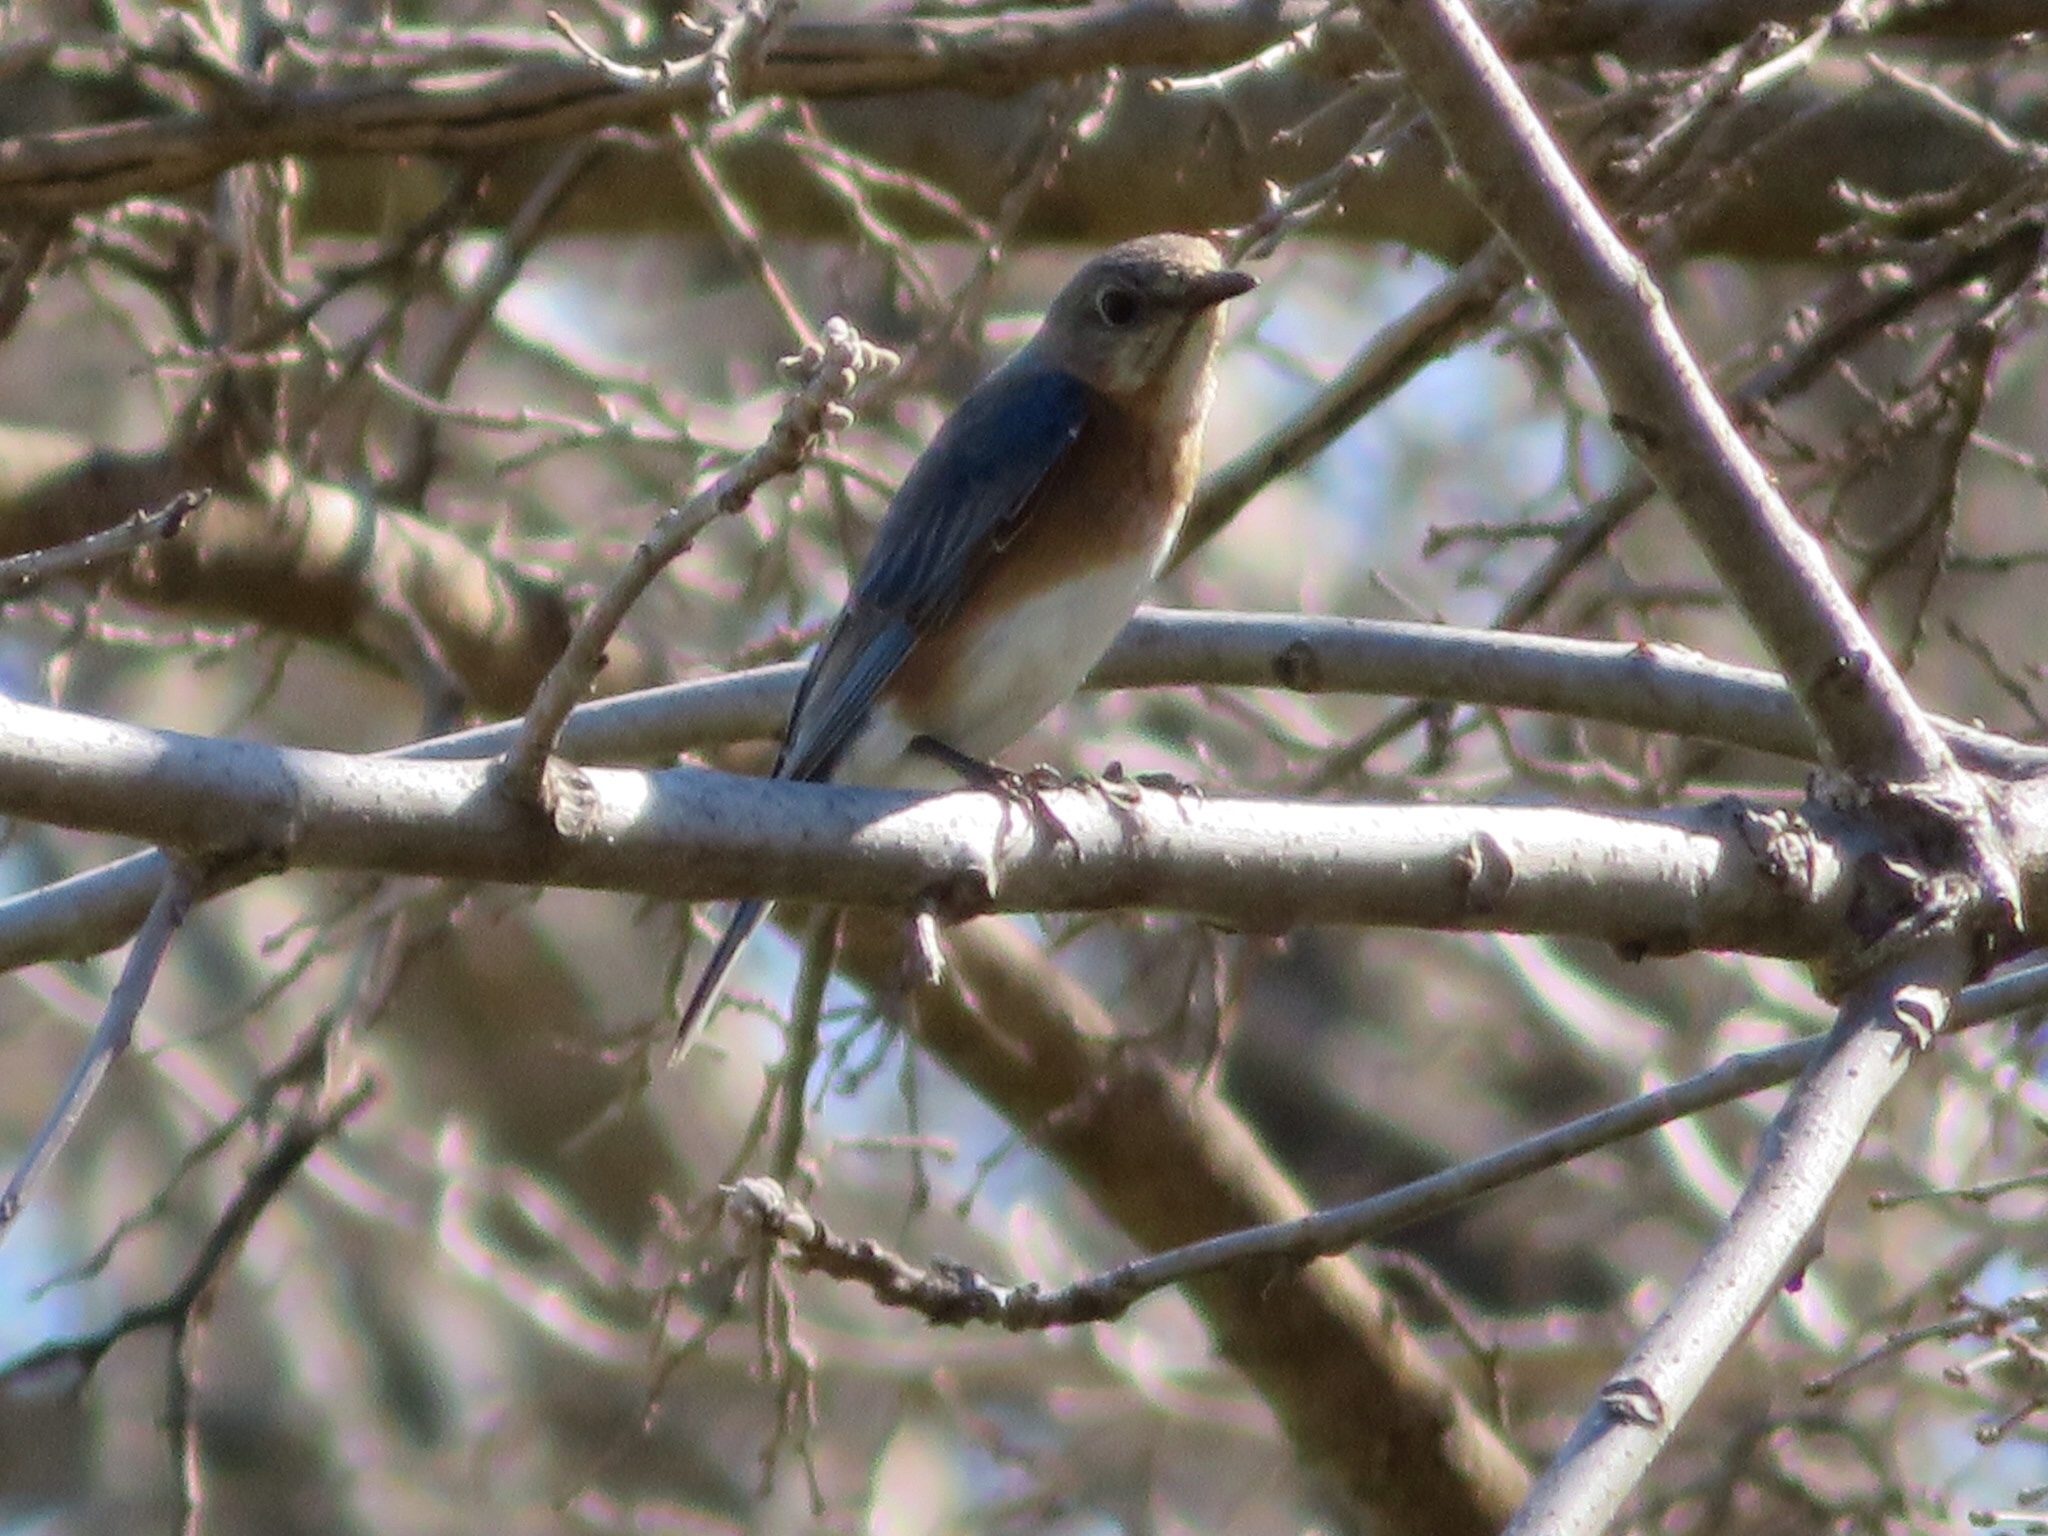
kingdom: Animalia
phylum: Chordata
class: Aves
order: Passeriformes
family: Turdidae
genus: Sialia
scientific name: Sialia sialis
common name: Eastern bluebird
